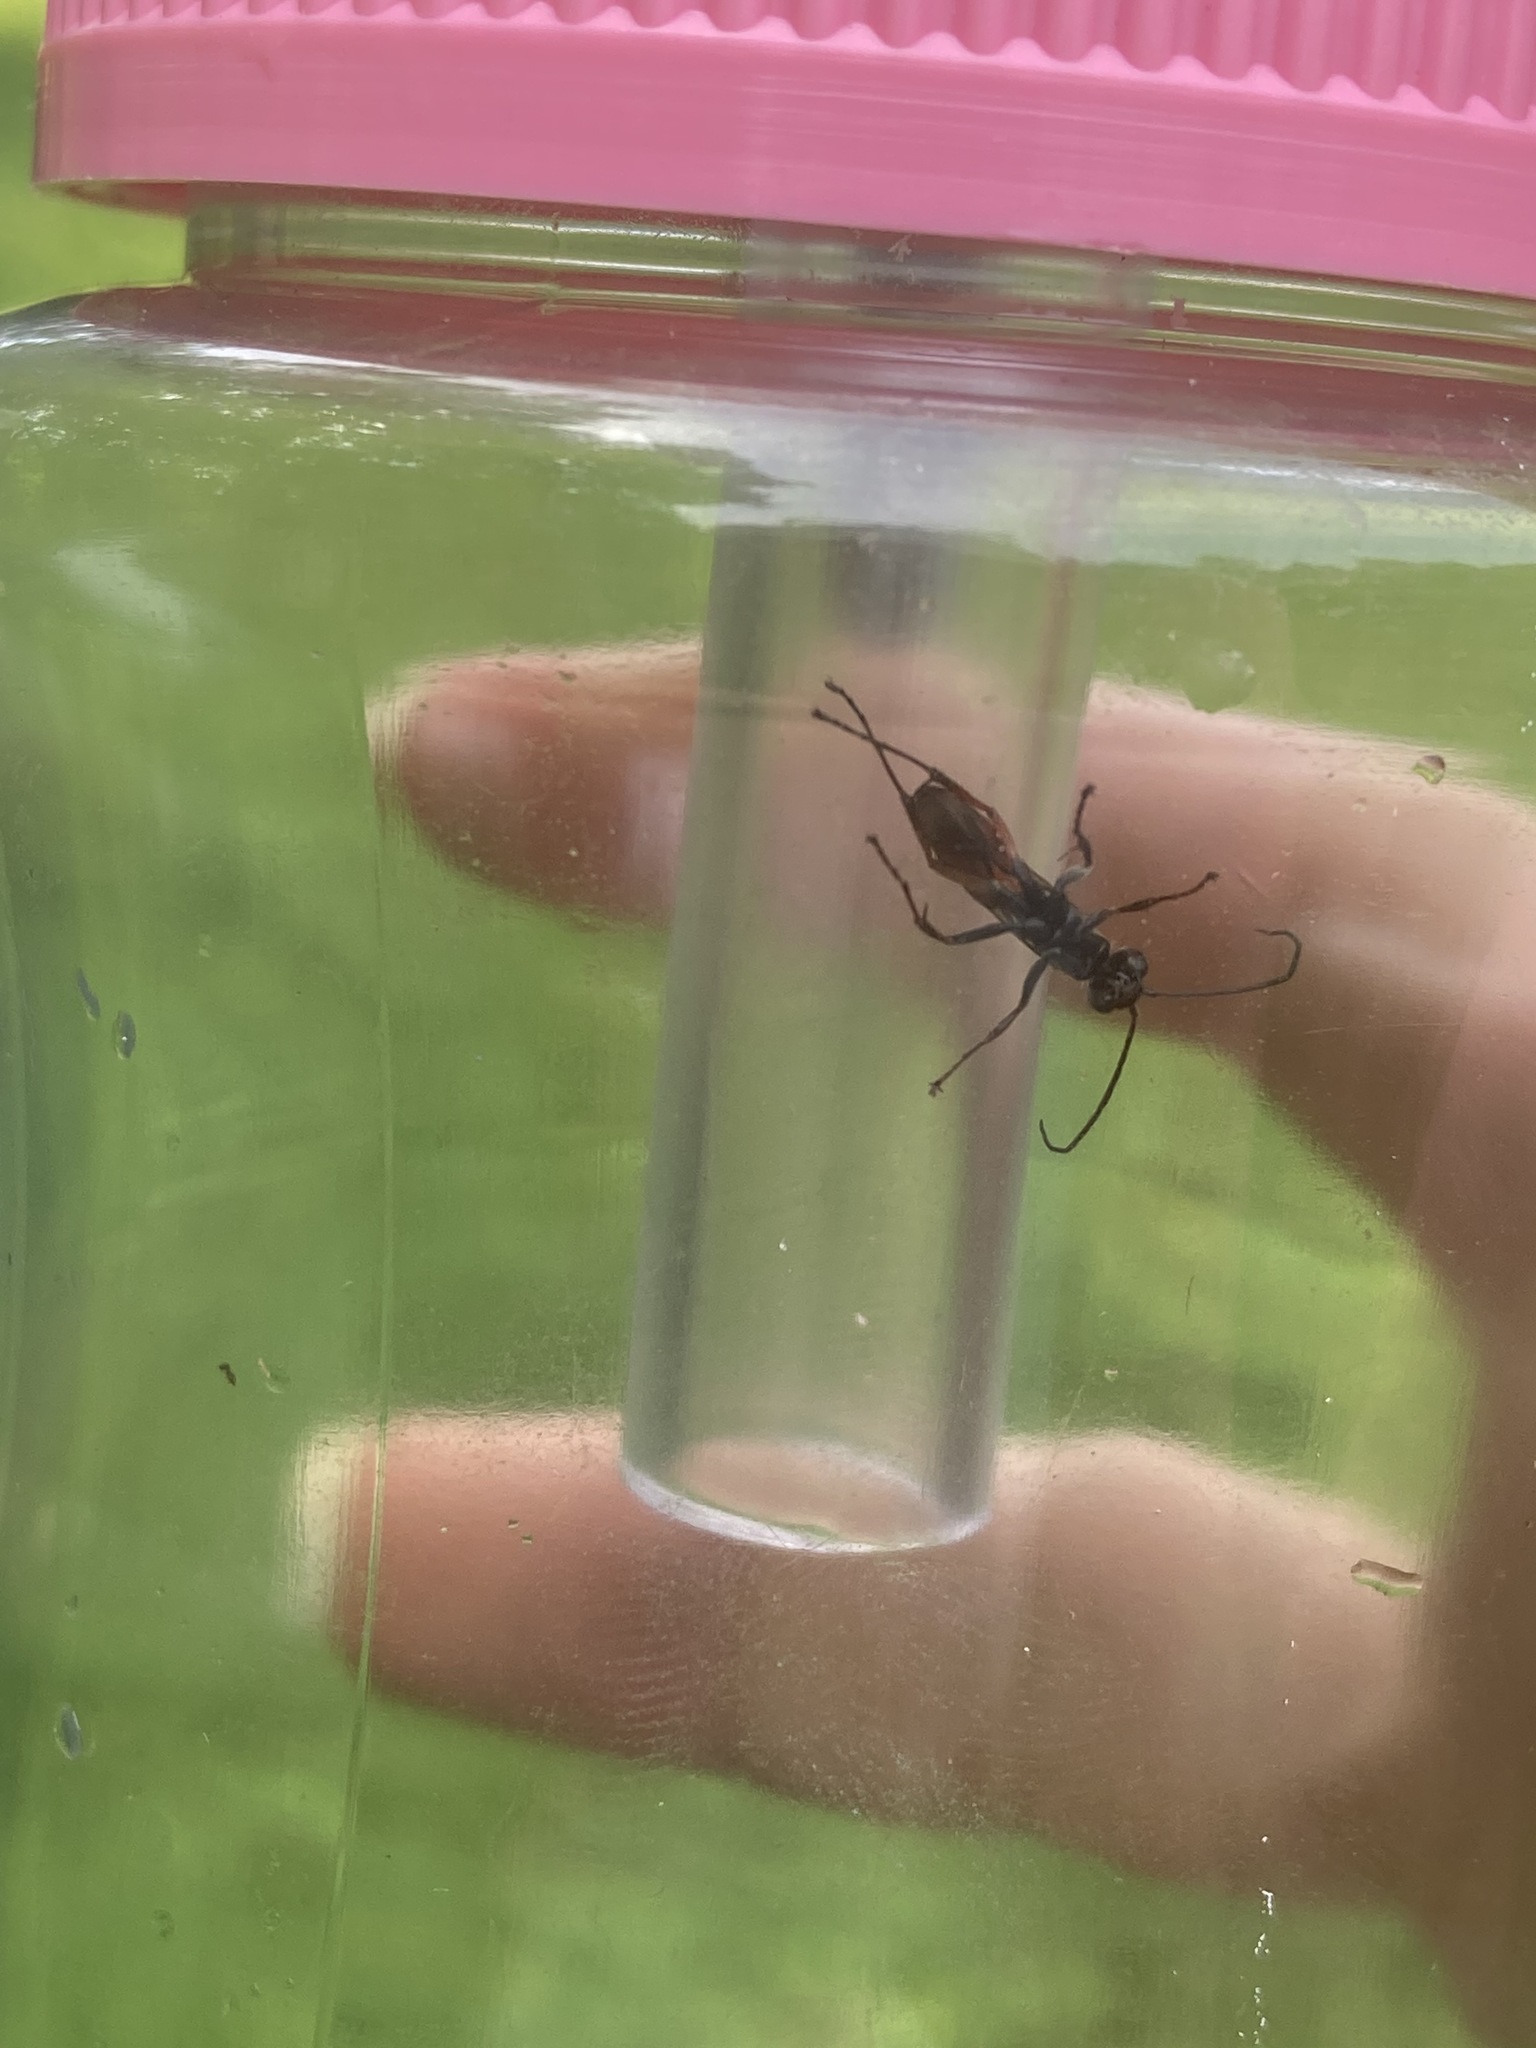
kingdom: Animalia
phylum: Arthropoda
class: Insecta
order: Hymenoptera
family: Pompilidae
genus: Caliadurgus
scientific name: Caliadurgus fasciatellus
